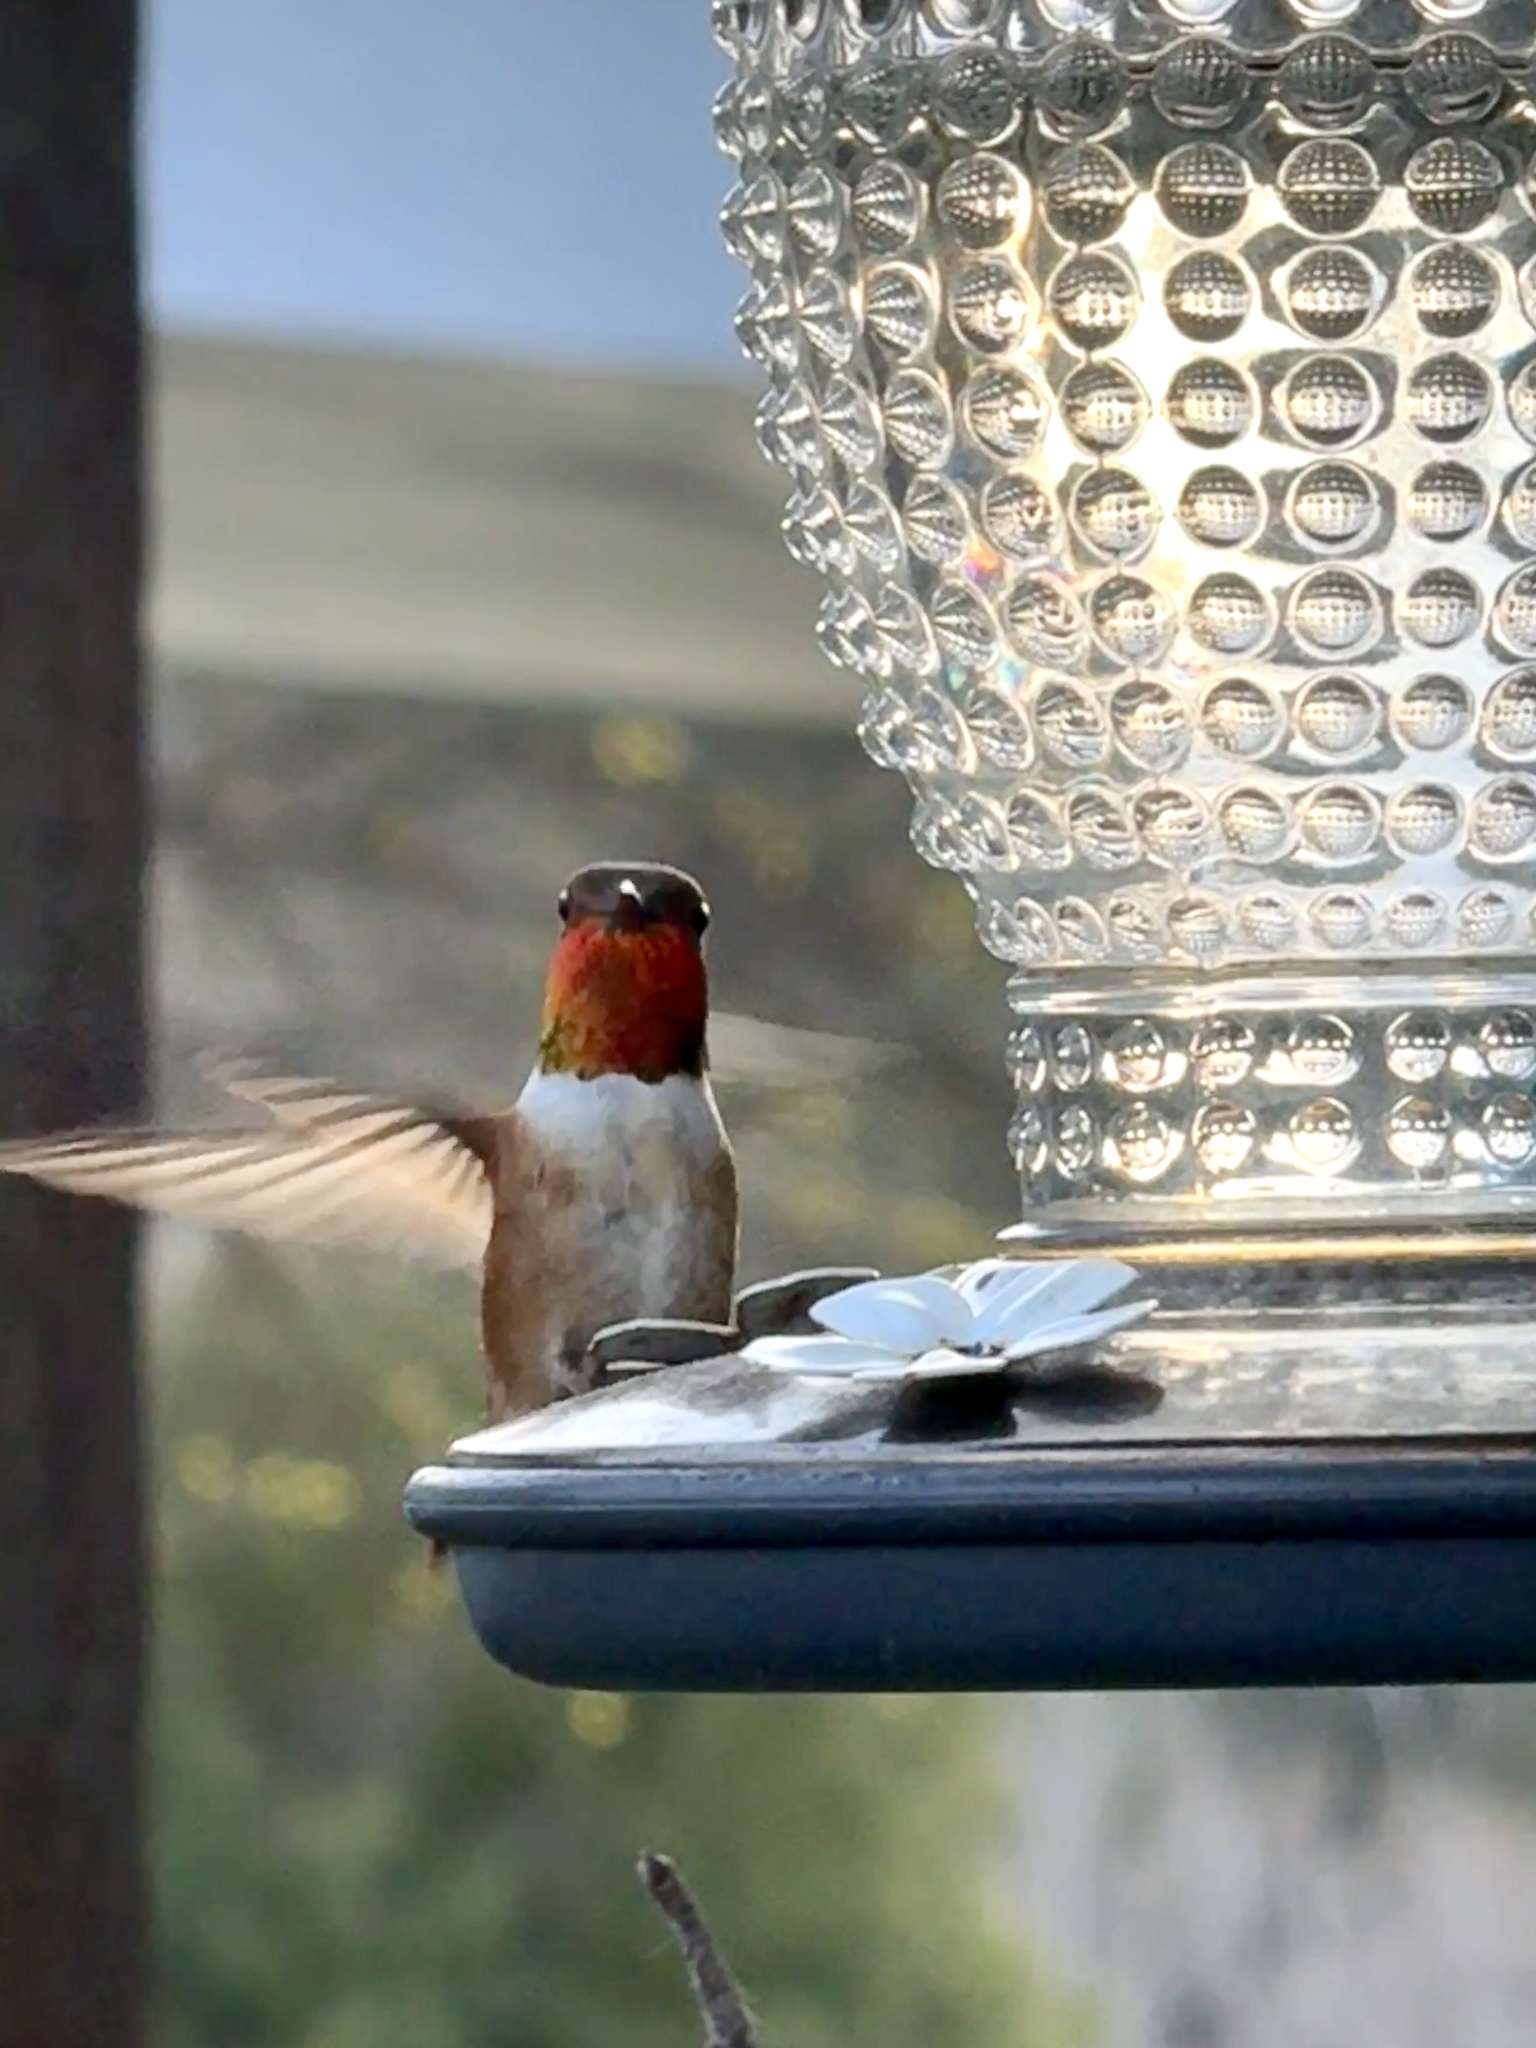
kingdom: Animalia
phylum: Chordata
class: Aves
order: Apodiformes
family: Trochilidae
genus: Selasphorus
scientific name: Selasphorus
